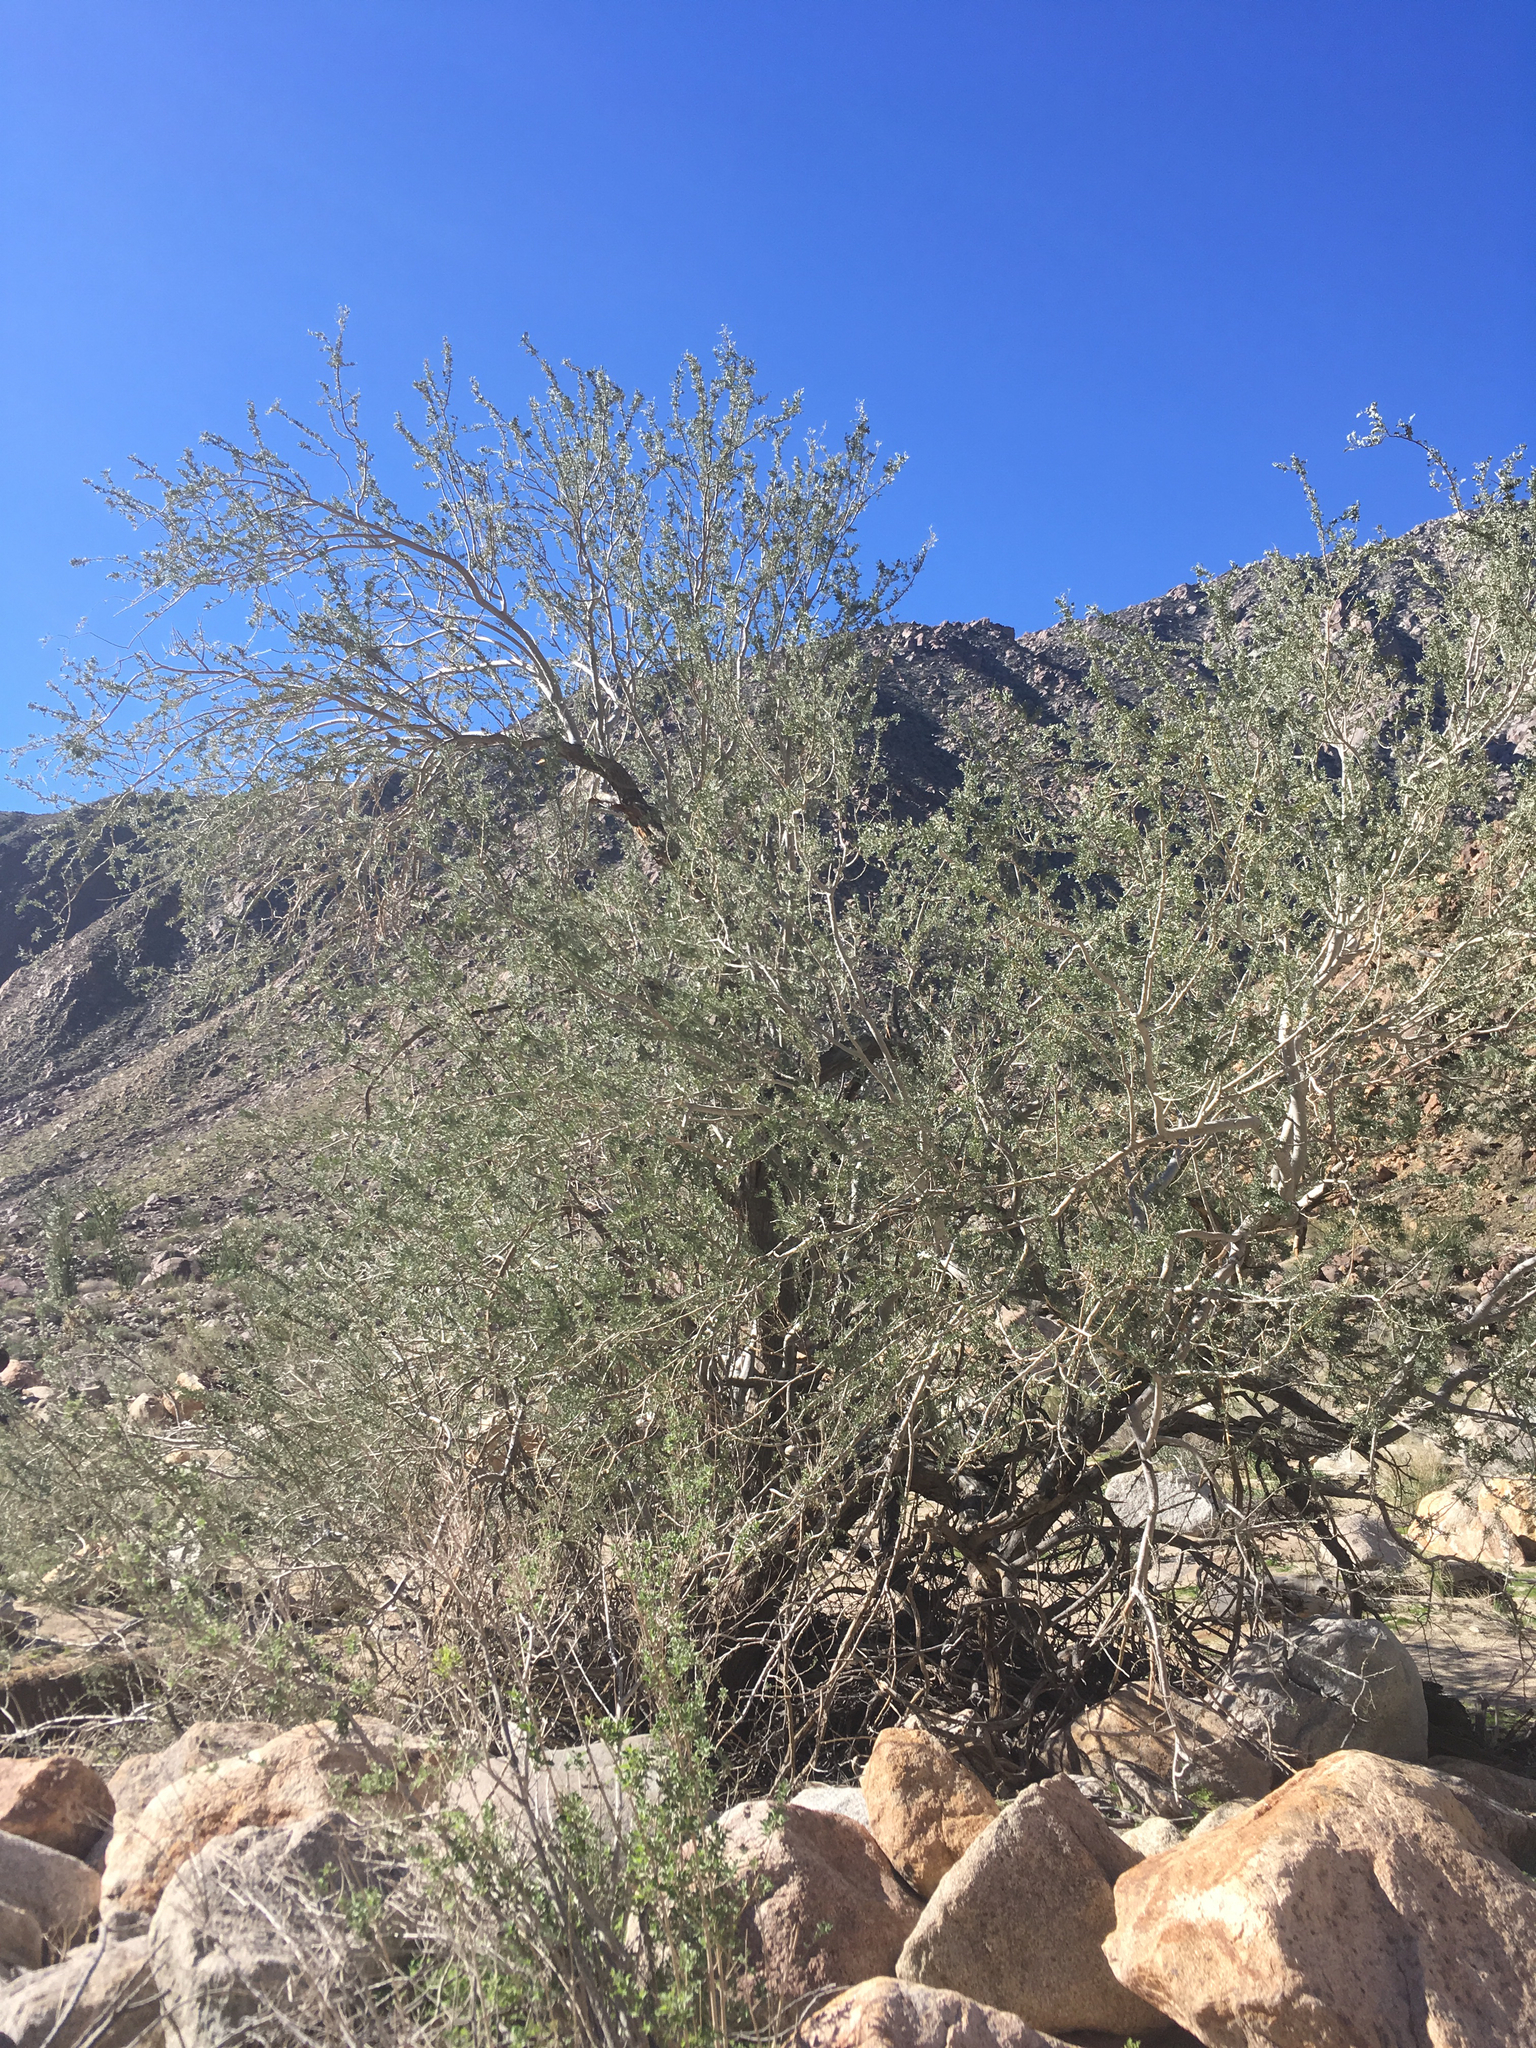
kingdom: Plantae
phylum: Tracheophyta
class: Magnoliopsida
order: Fabales
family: Fabaceae
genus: Olneya
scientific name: Olneya tesota
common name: Desert ironwood
